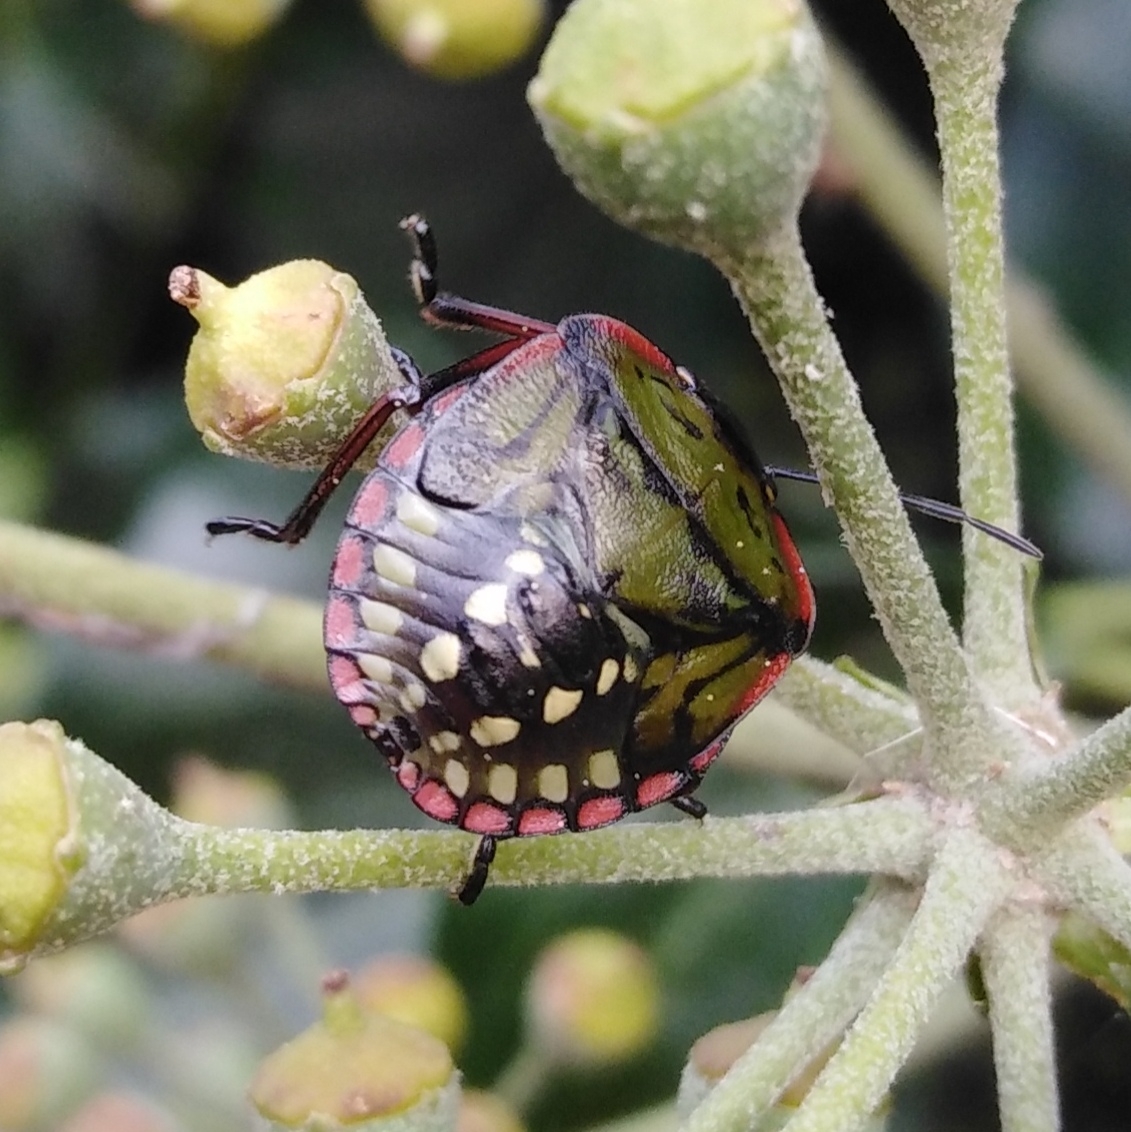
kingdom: Animalia
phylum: Arthropoda
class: Insecta
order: Hemiptera
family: Pentatomidae
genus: Nezara
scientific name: Nezara viridula
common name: Southern green stink bug
